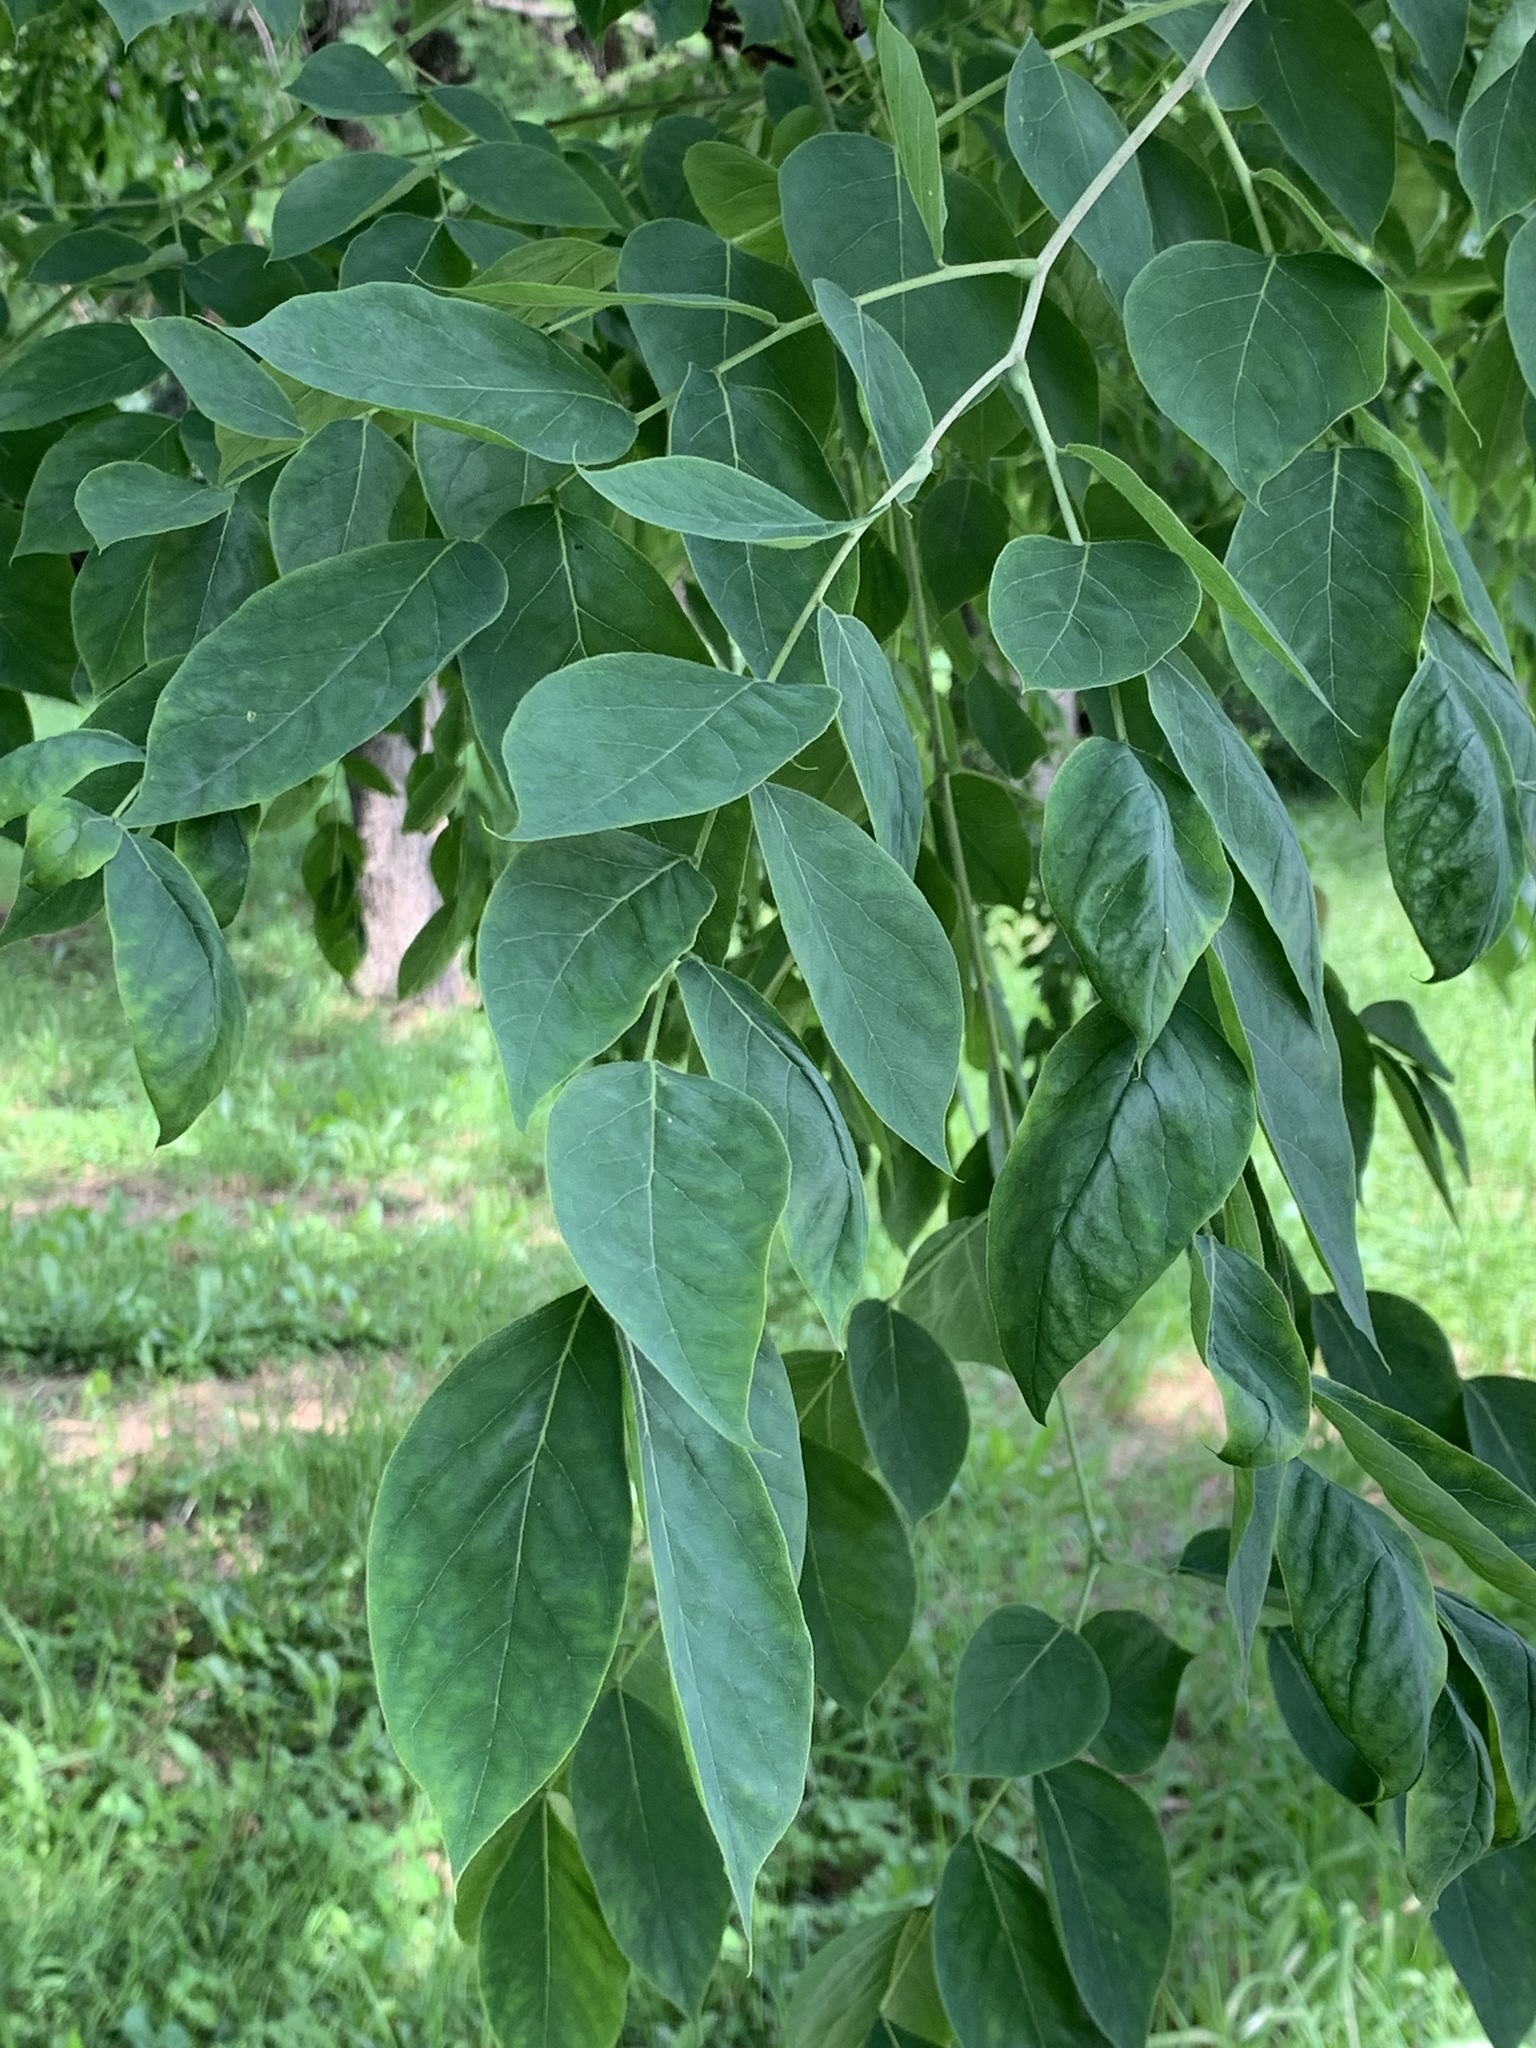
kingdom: Plantae
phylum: Tracheophyta
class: Magnoliopsida
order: Fabales
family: Fabaceae
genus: Gymnocladus
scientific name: Gymnocladus dioicus
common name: Kentucky coffee-tree
